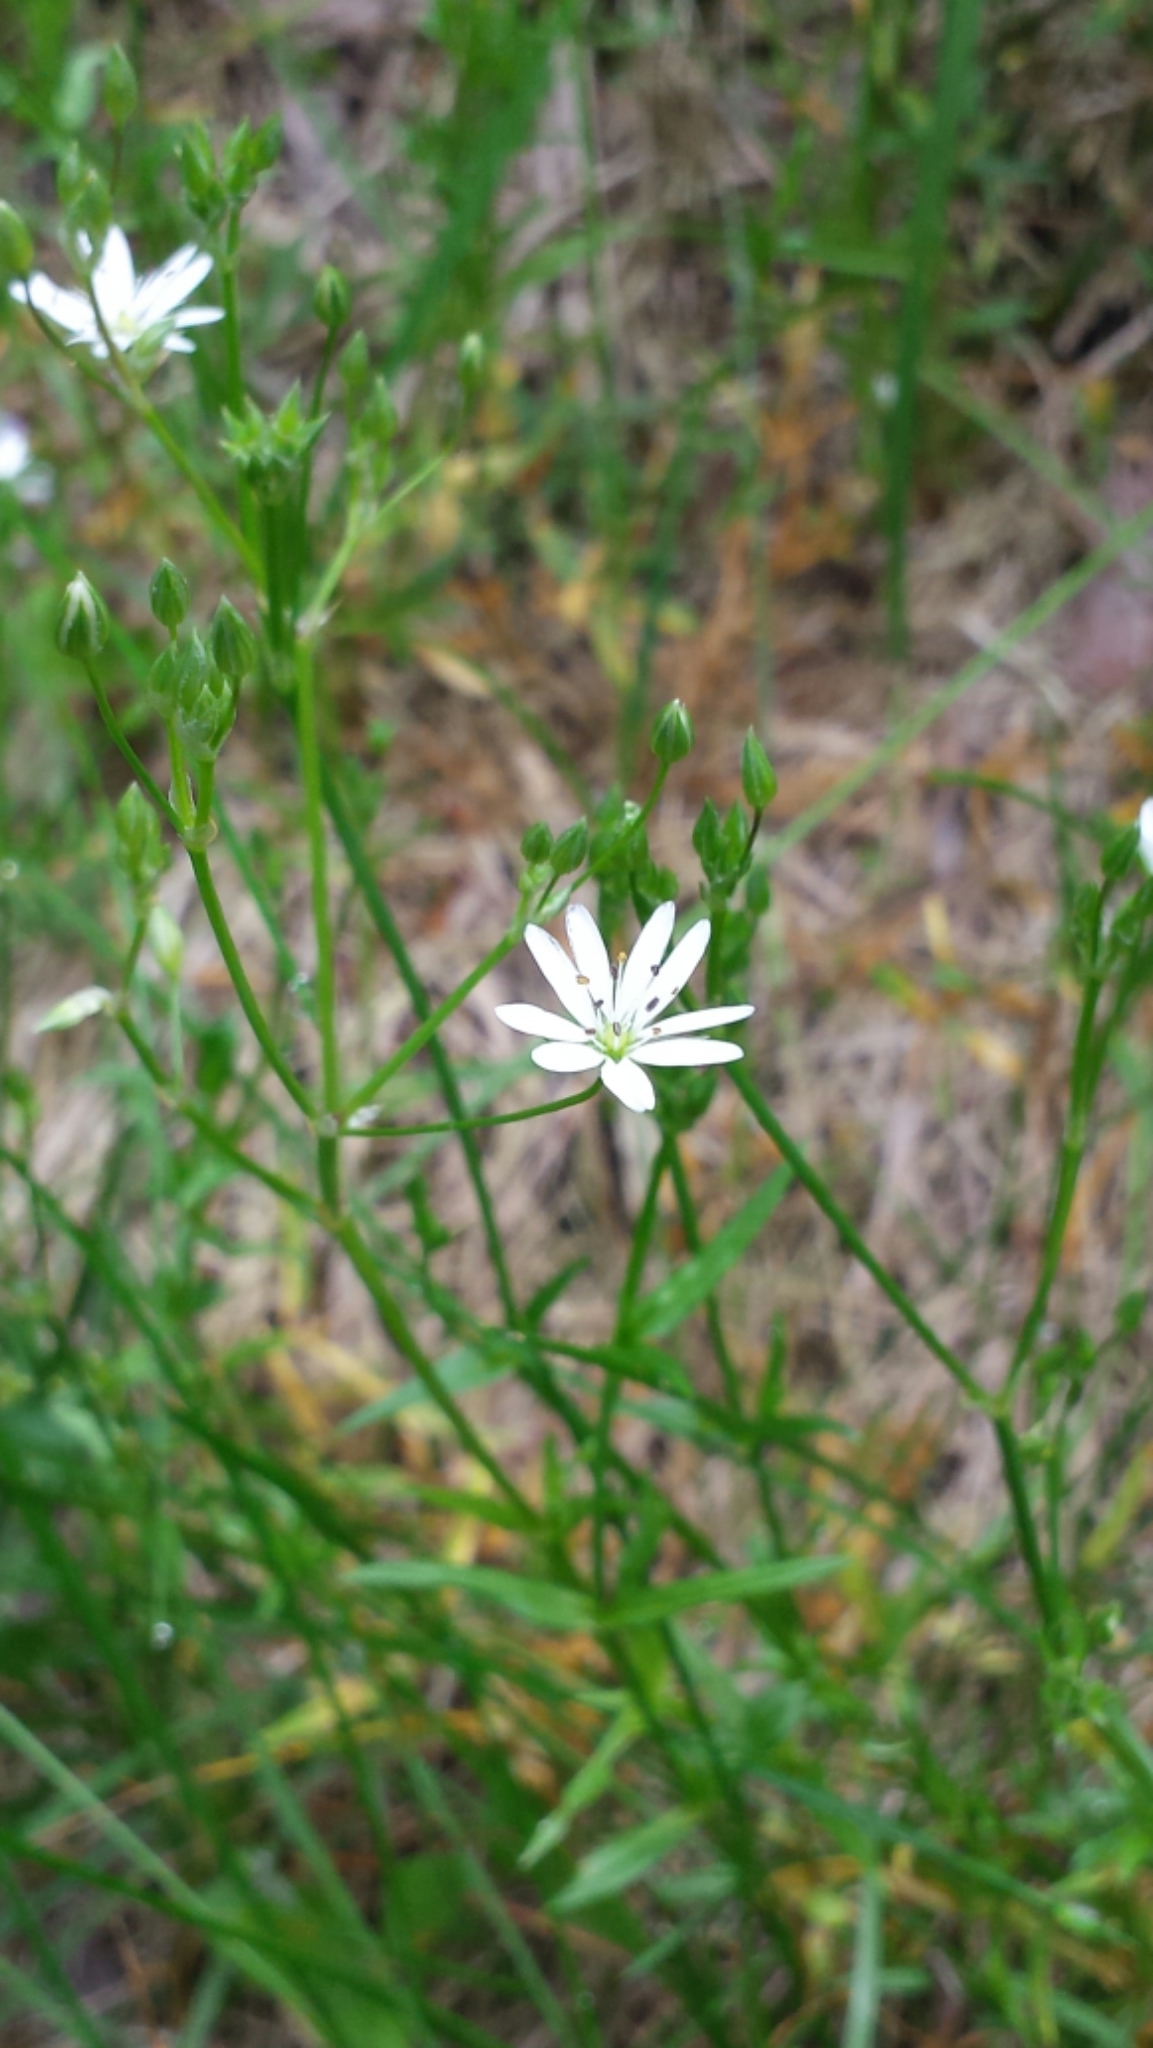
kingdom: Plantae
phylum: Tracheophyta
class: Magnoliopsida
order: Caryophyllales
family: Caryophyllaceae
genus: Stellaria
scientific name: Stellaria graminea
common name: Grass-like starwort
